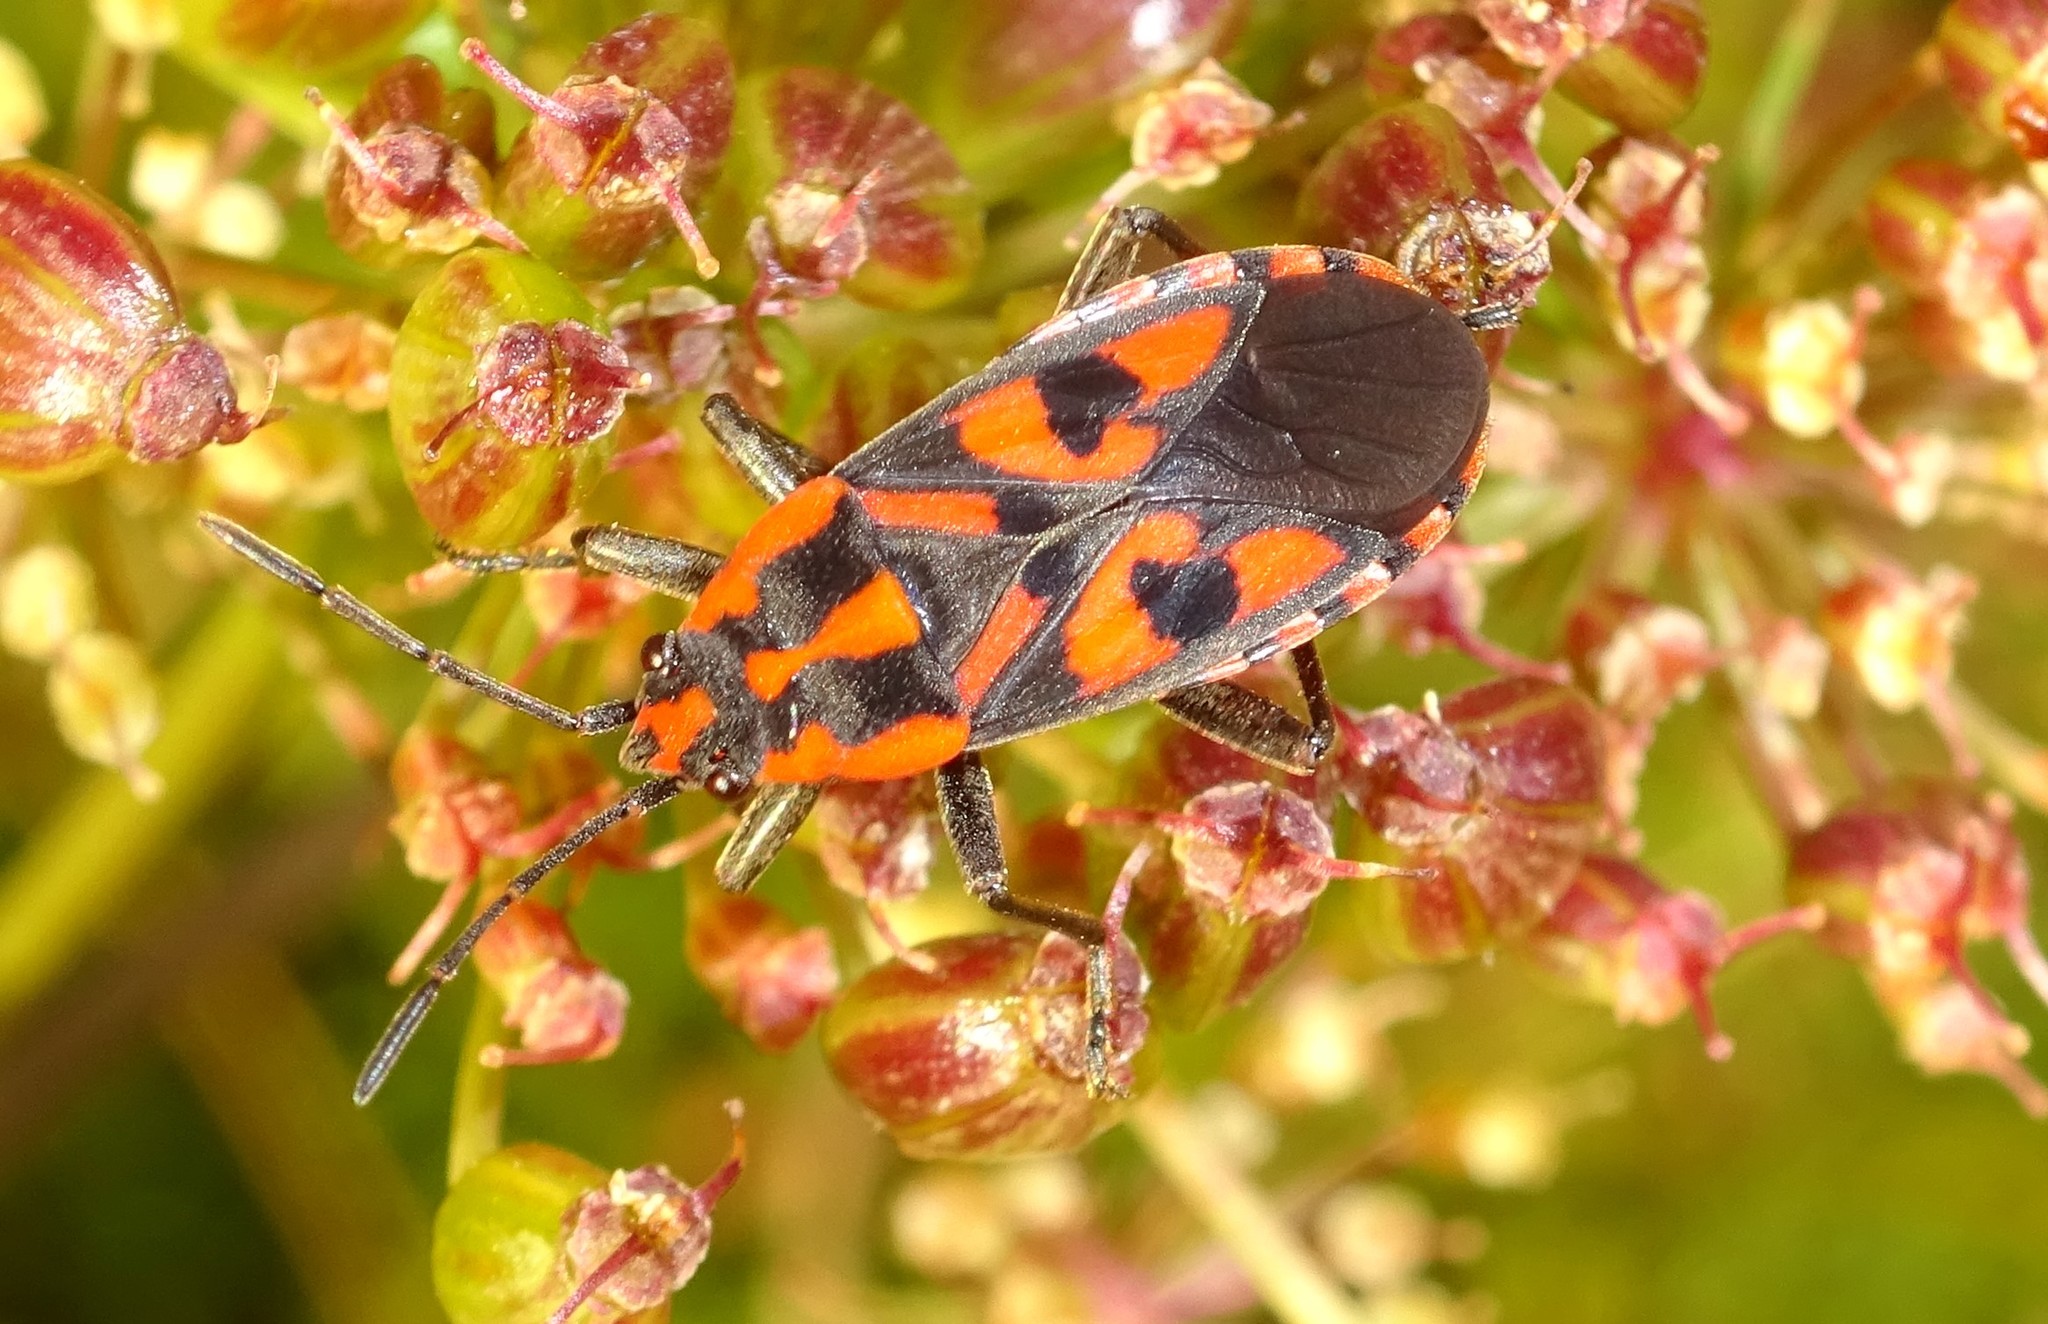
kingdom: Animalia
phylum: Arthropoda
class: Insecta
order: Hemiptera
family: Lygaeidae
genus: Spilostethus
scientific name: Spilostethus saxatilis
